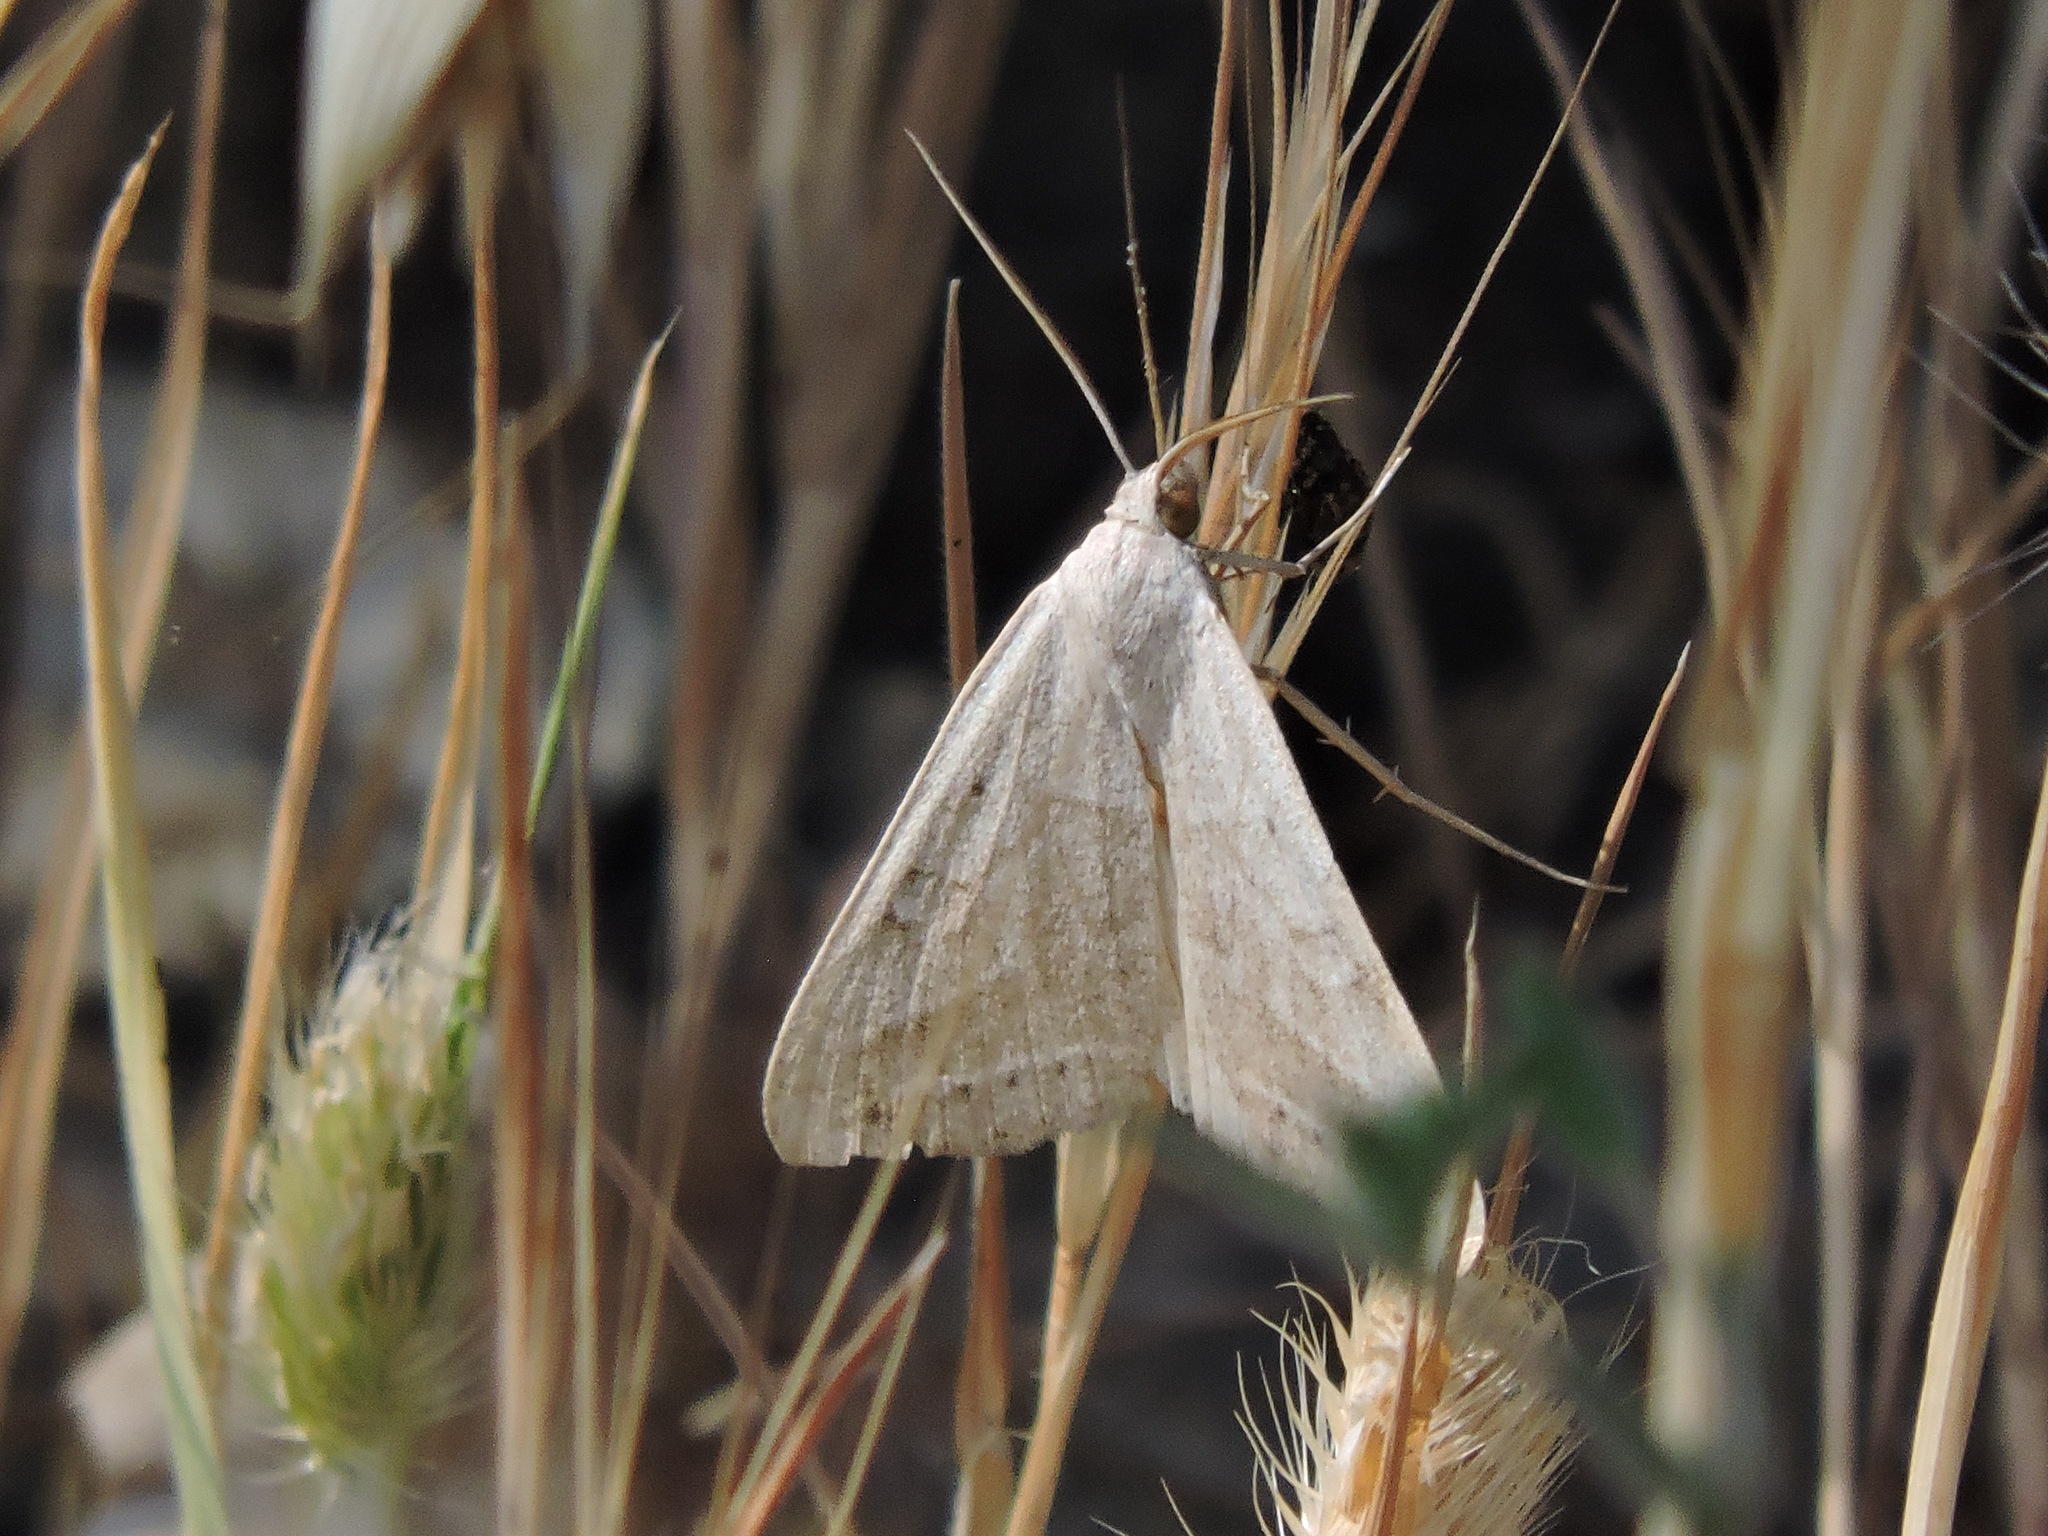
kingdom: Animalia
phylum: Arthropoda
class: Insecta
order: Lepidoptera
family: Erebidae
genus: Caenurgia
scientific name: Caenurgia togataria
